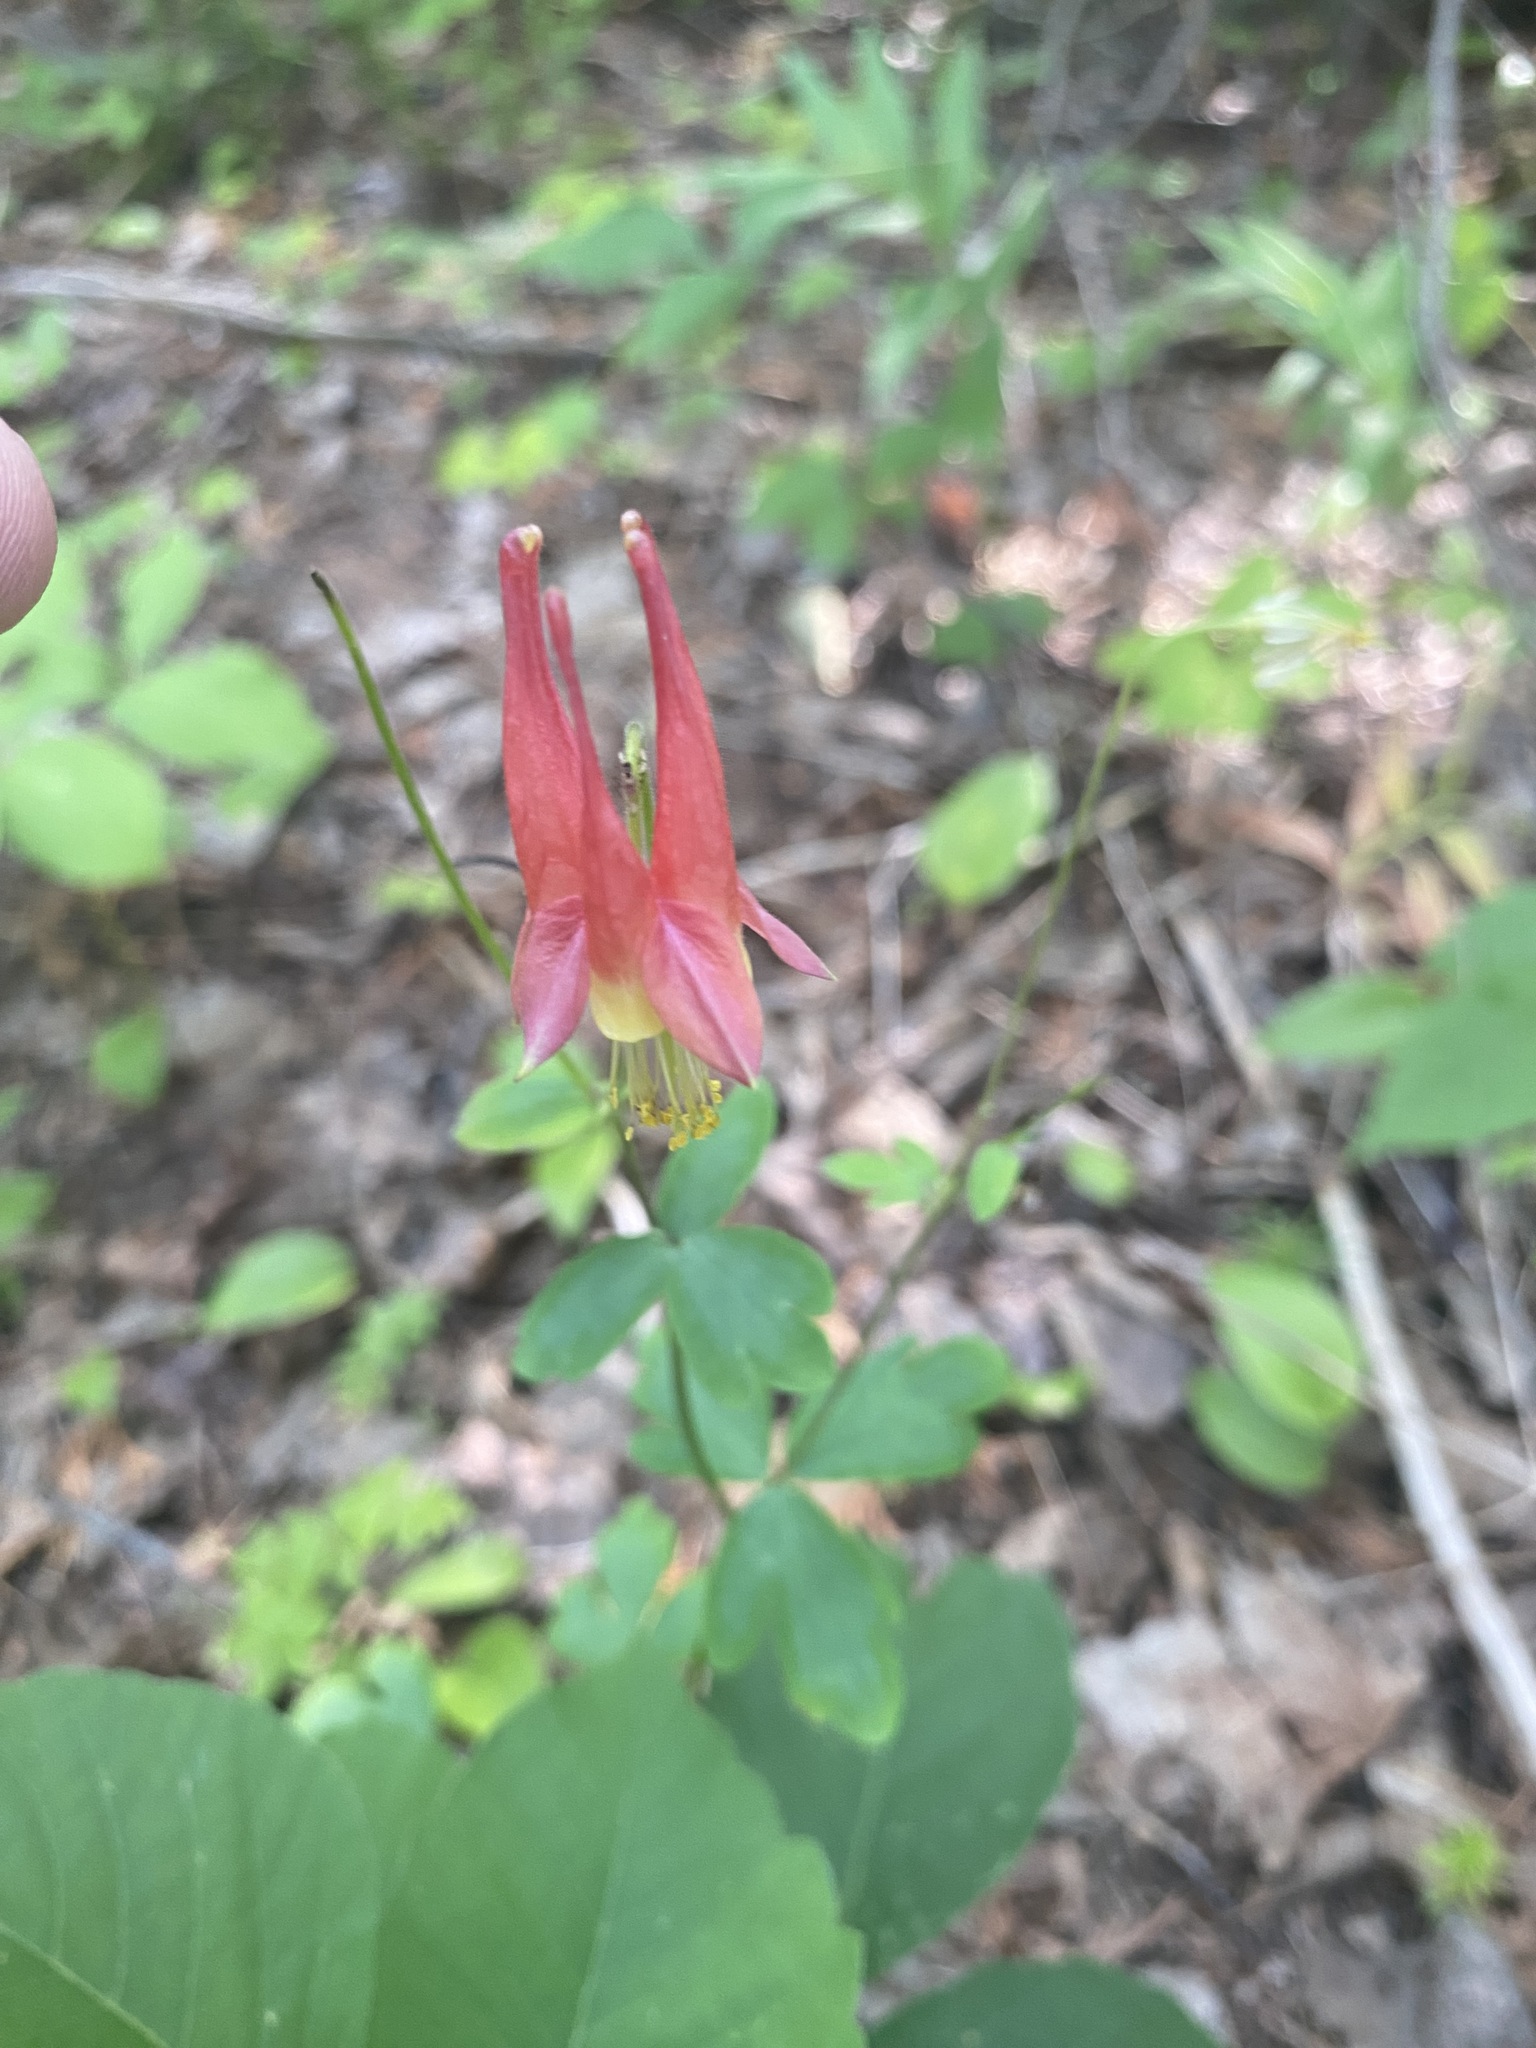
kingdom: Plantae
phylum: Tracheophyta
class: Magnoliopsida
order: Ranunculales
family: Ranunculaceae
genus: Aquilegia
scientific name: Aquilegia canadensis
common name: American columbine
